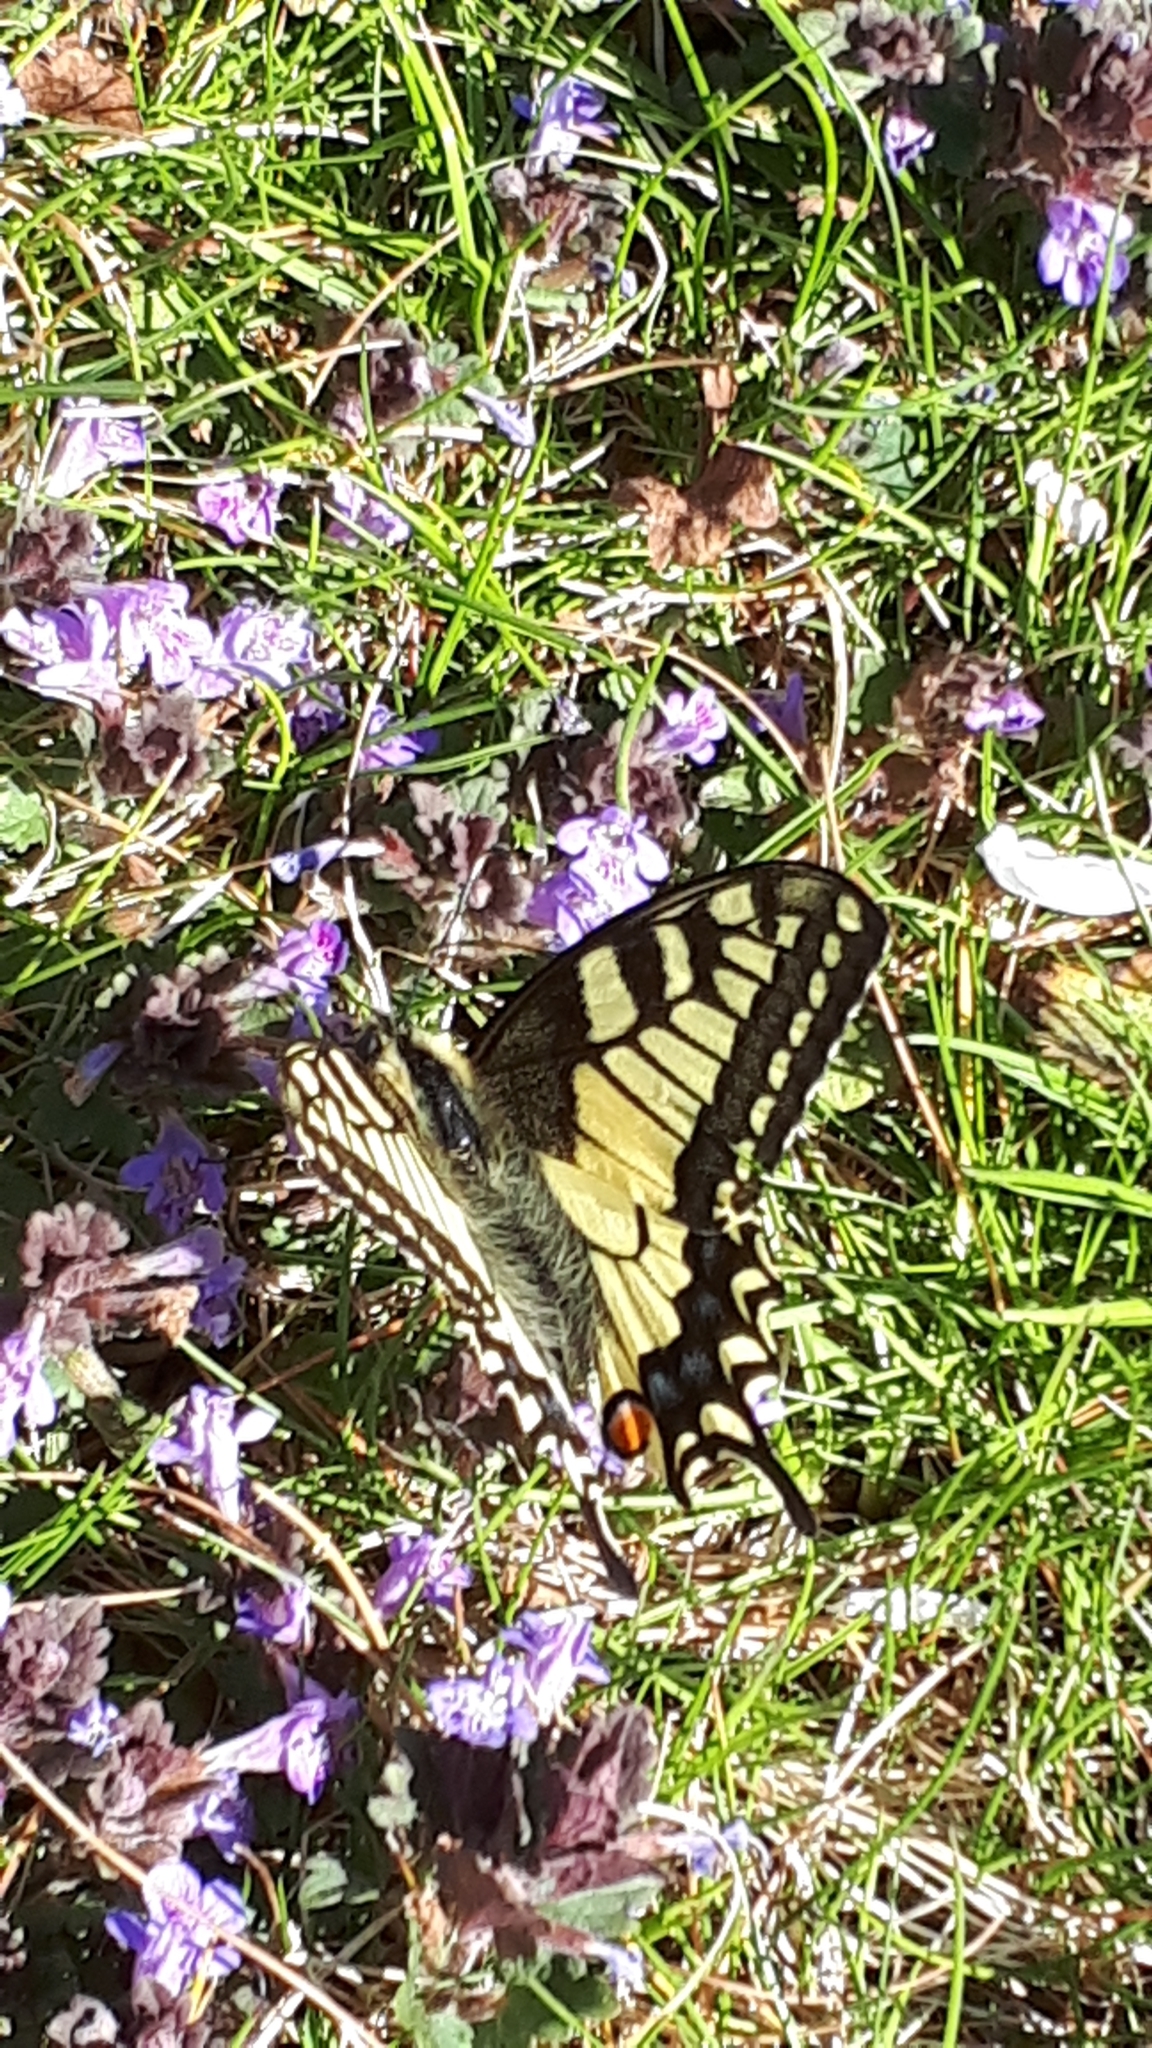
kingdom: Animalia
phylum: Arthropoda
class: Insecta
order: Lepidoptera
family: Papilionidae
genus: Papilio
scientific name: Papilio machaon
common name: Swallowtail
